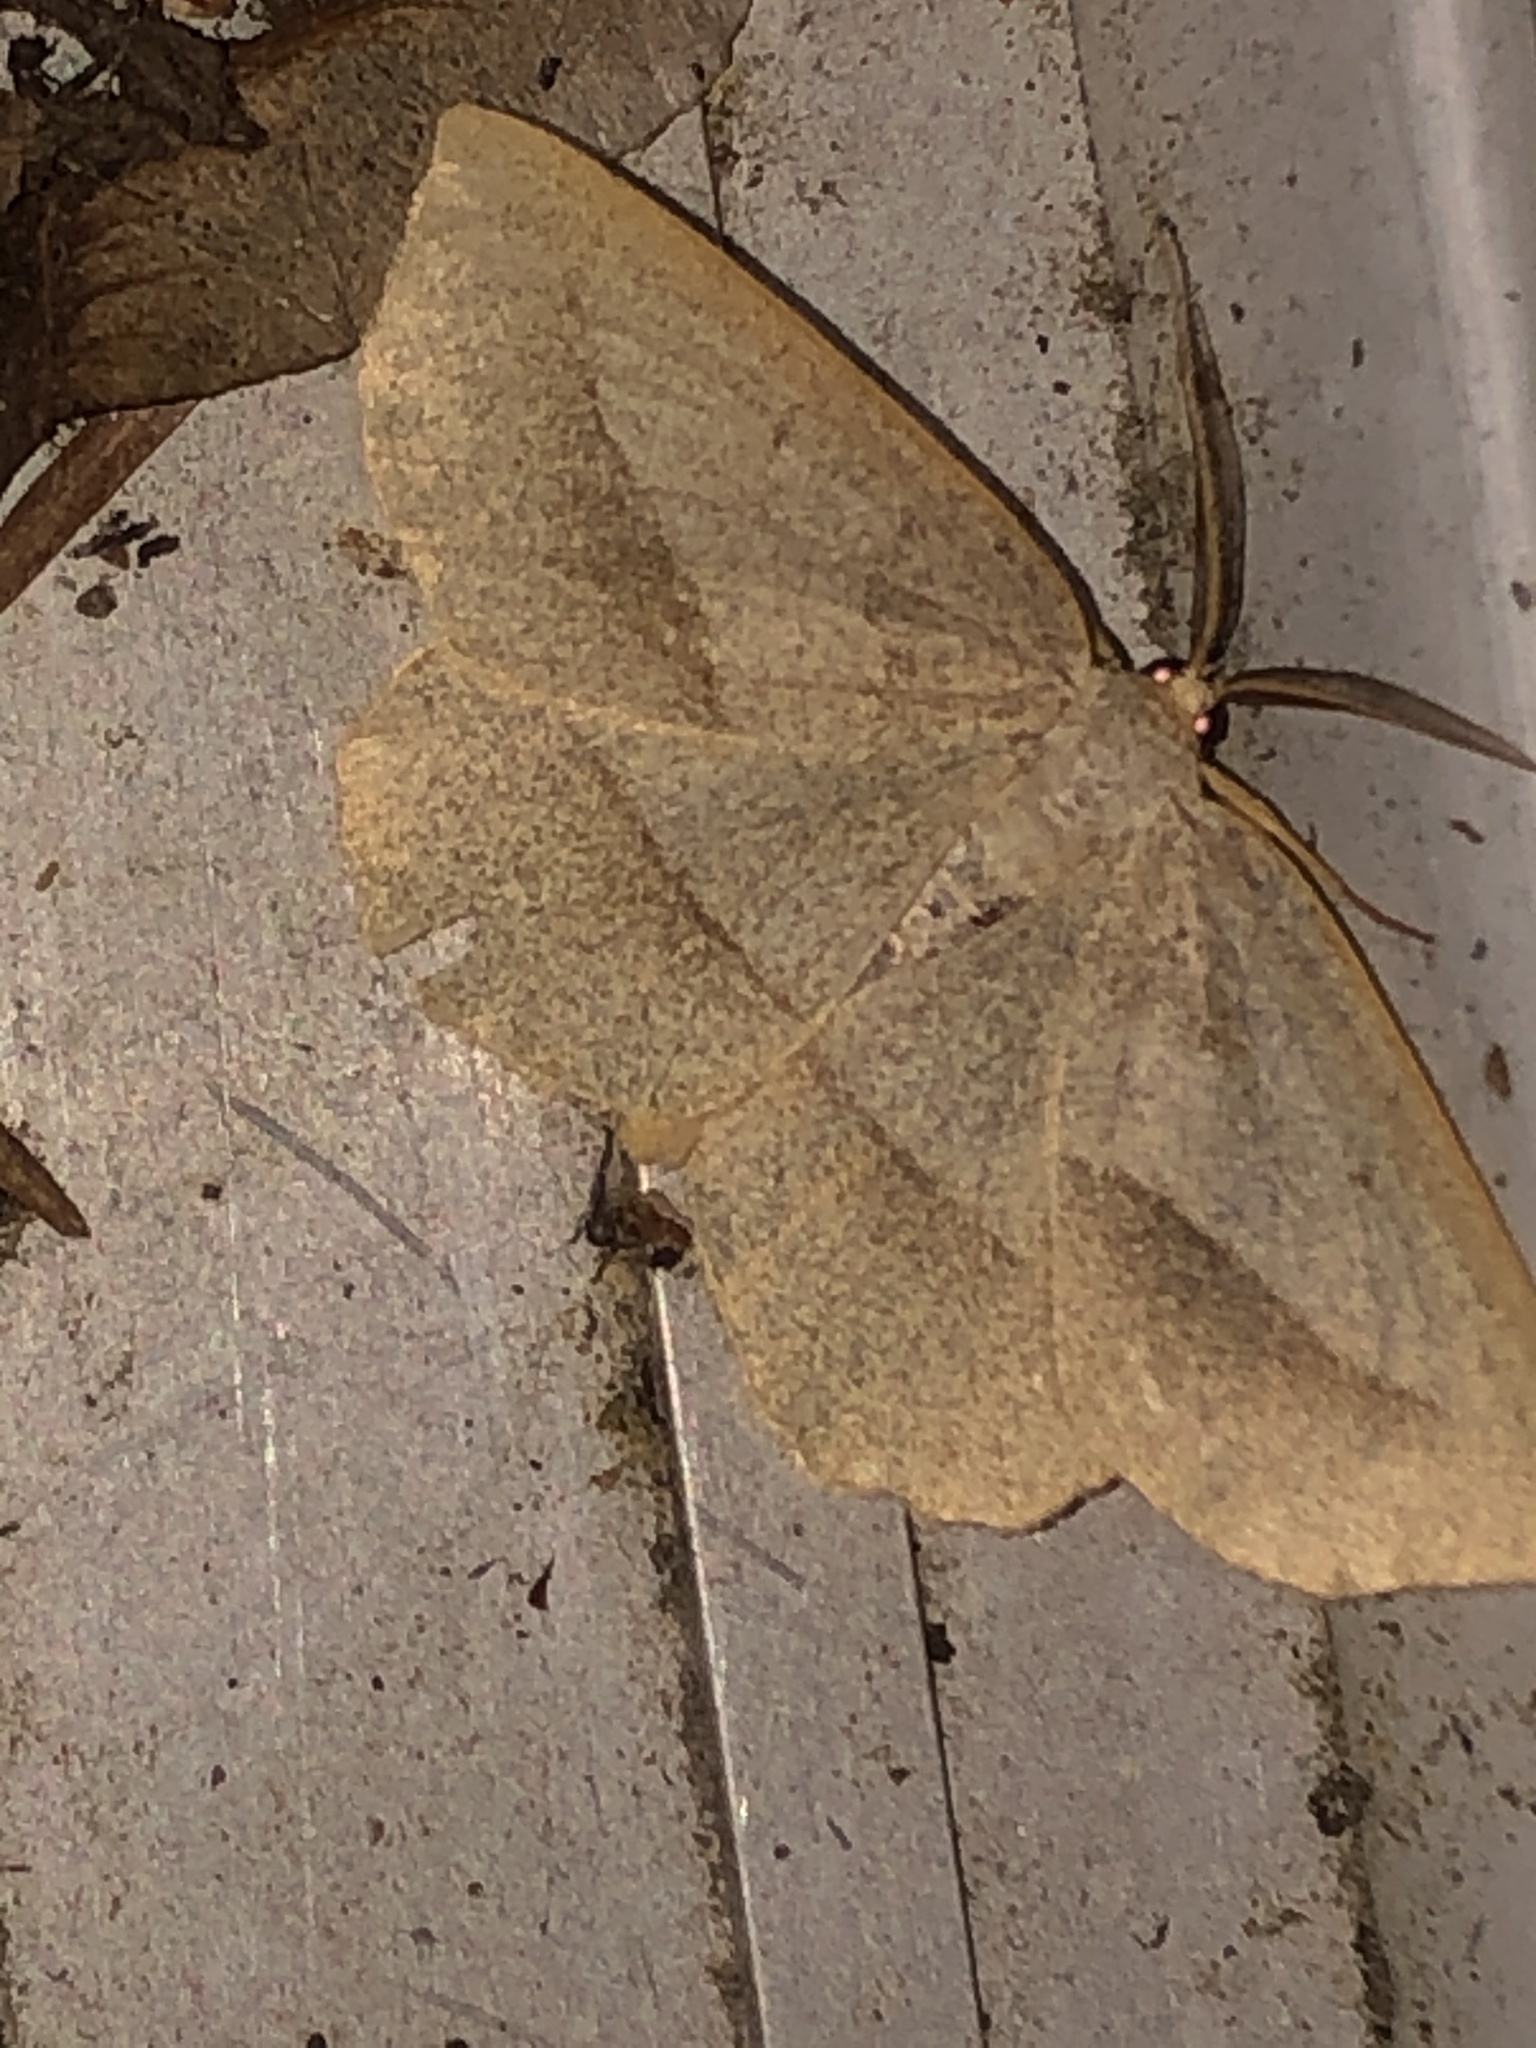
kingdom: Animalia
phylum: Arthropoda
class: Insecta
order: Lepidoptera
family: Geometridae
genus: Euchlaena
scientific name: Euchlaena irraria
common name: Least-marked euchlaena
